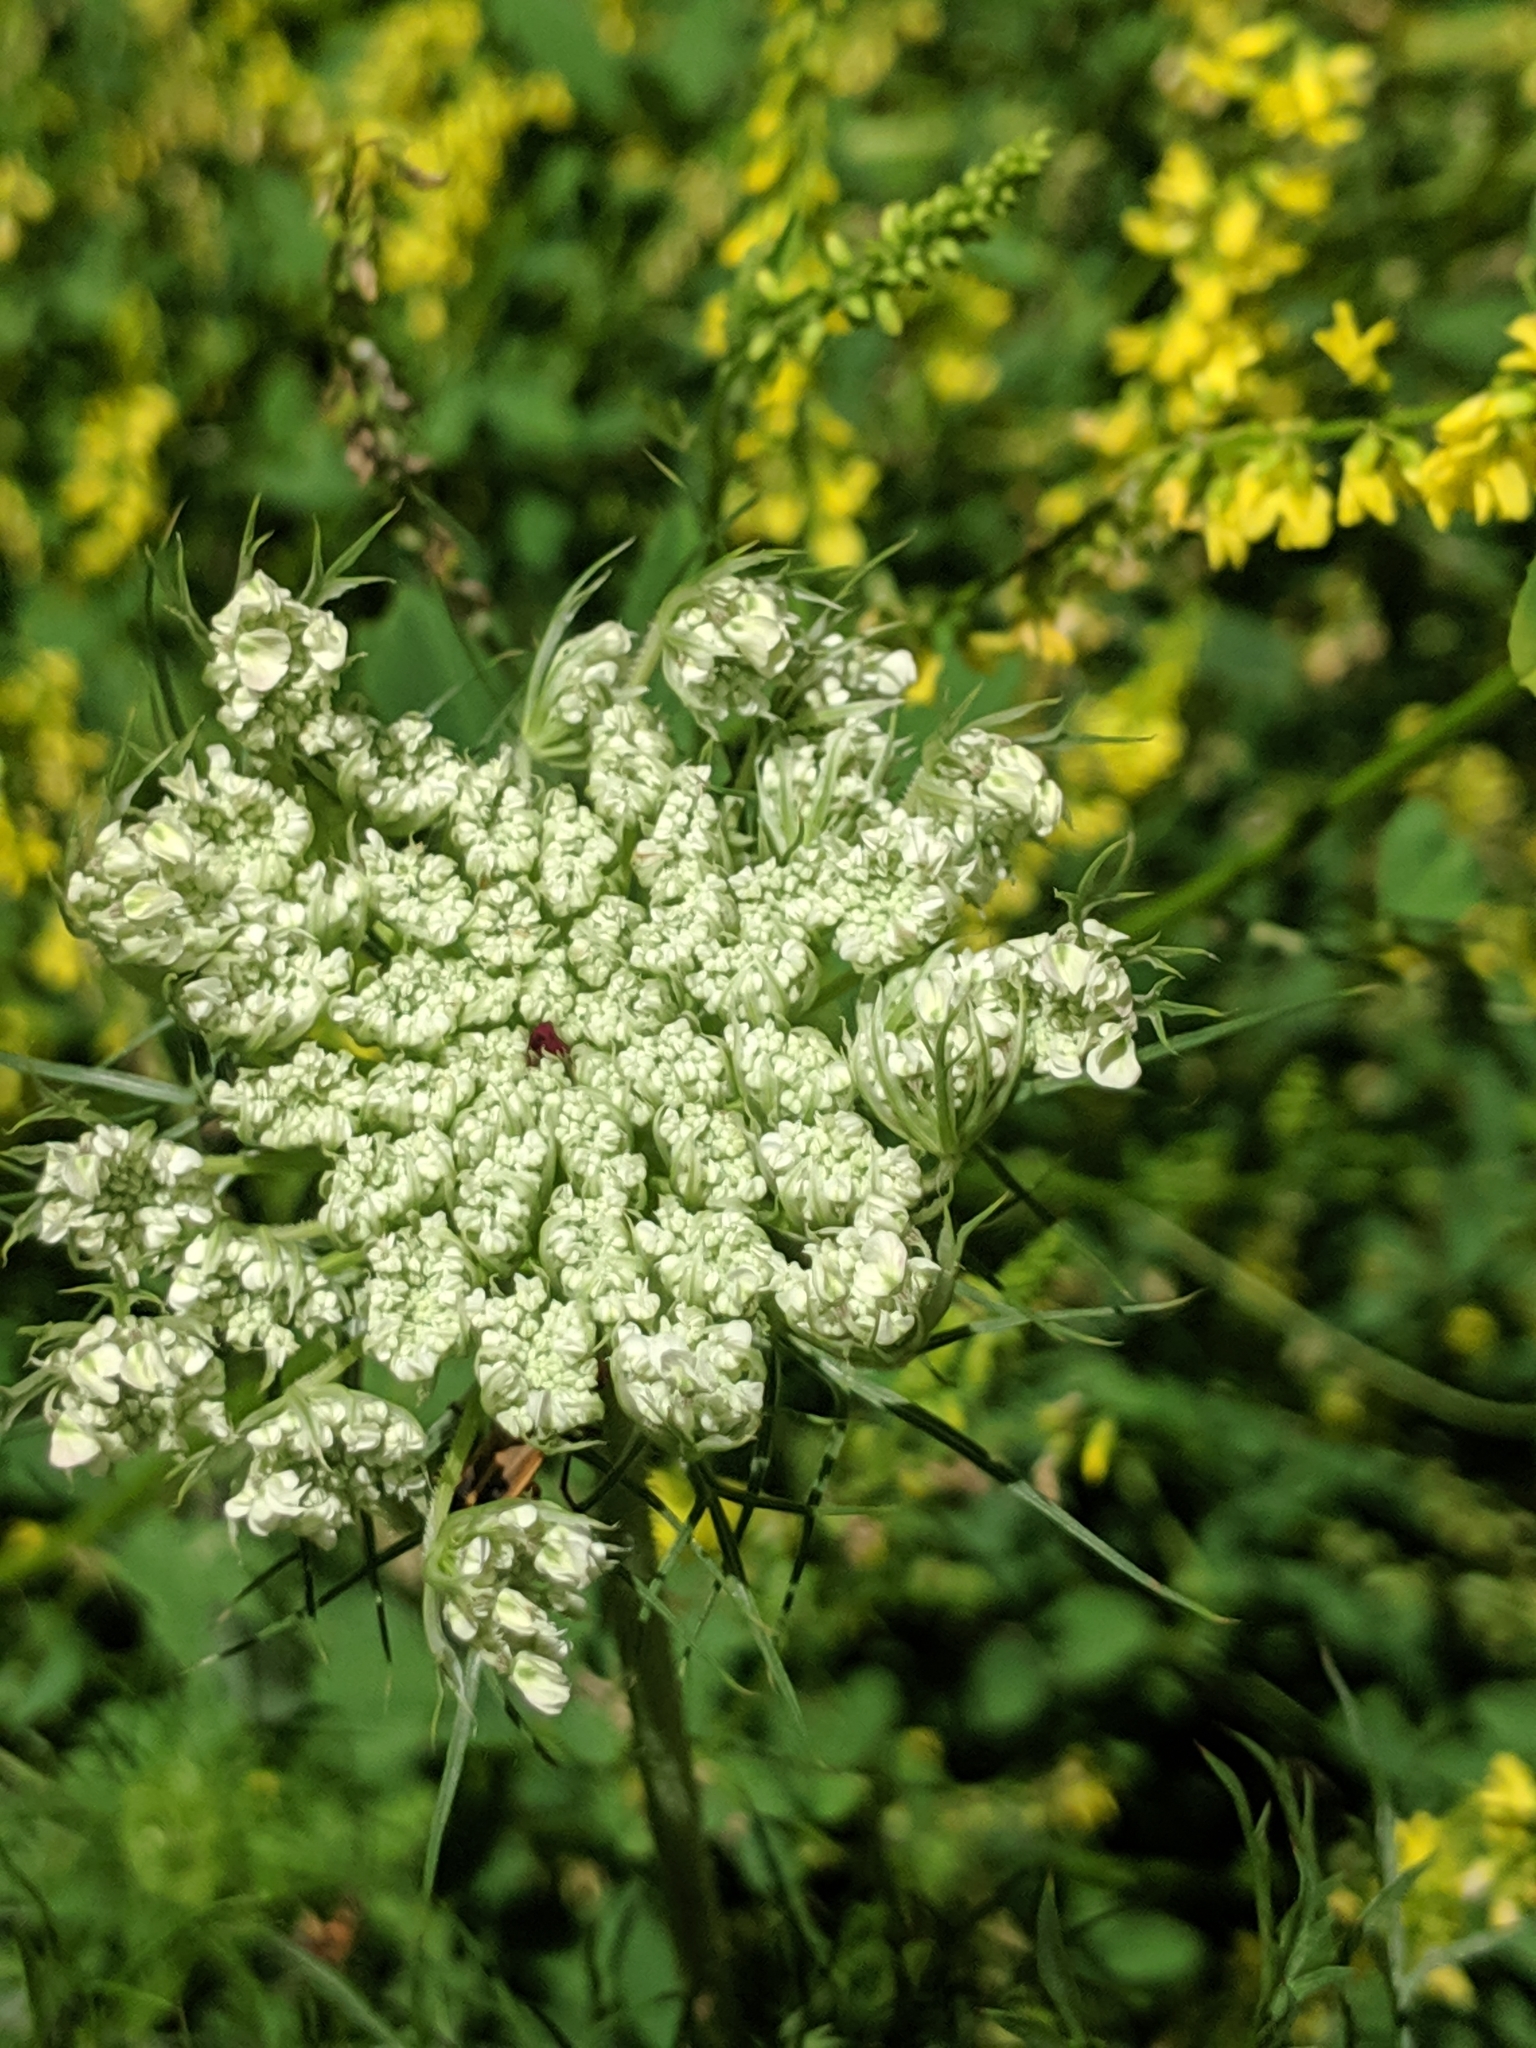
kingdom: Plantae
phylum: Tracheophyta
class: Magnoliopsida
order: Apiales
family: Apiaceae
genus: Daucus
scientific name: Daucus carota
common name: Wild carrot
